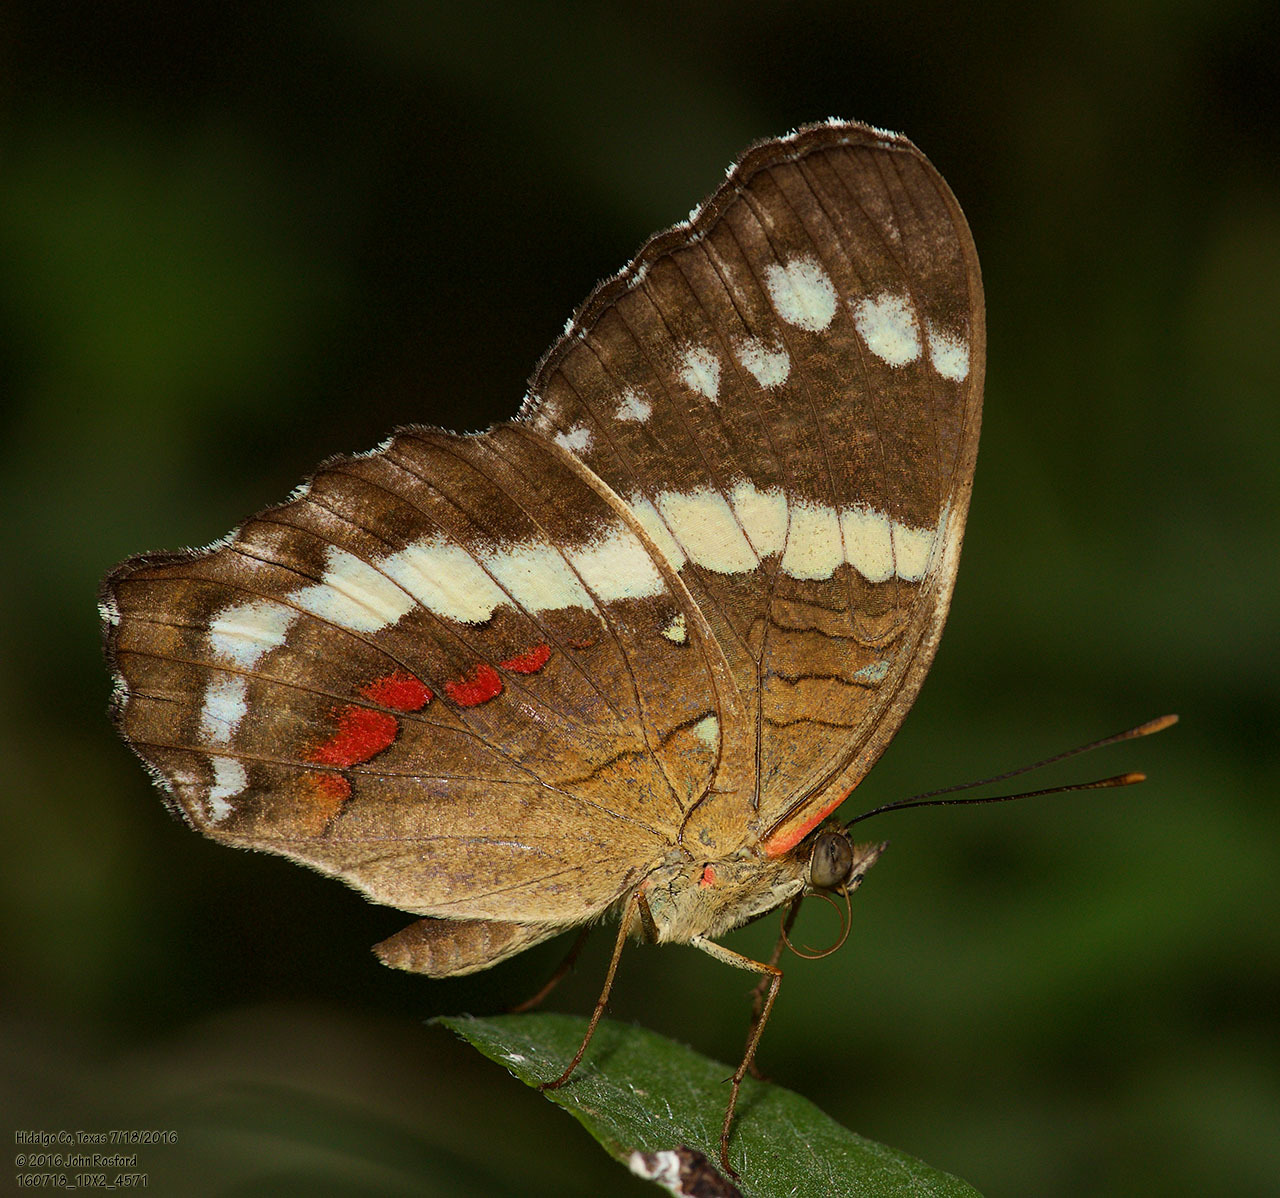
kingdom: Animalia
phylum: Arthropoda
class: Insecta
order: Lepidoptera
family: Nymphalidae
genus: Anartia
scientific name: Anartia fatima
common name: Banded peacock
